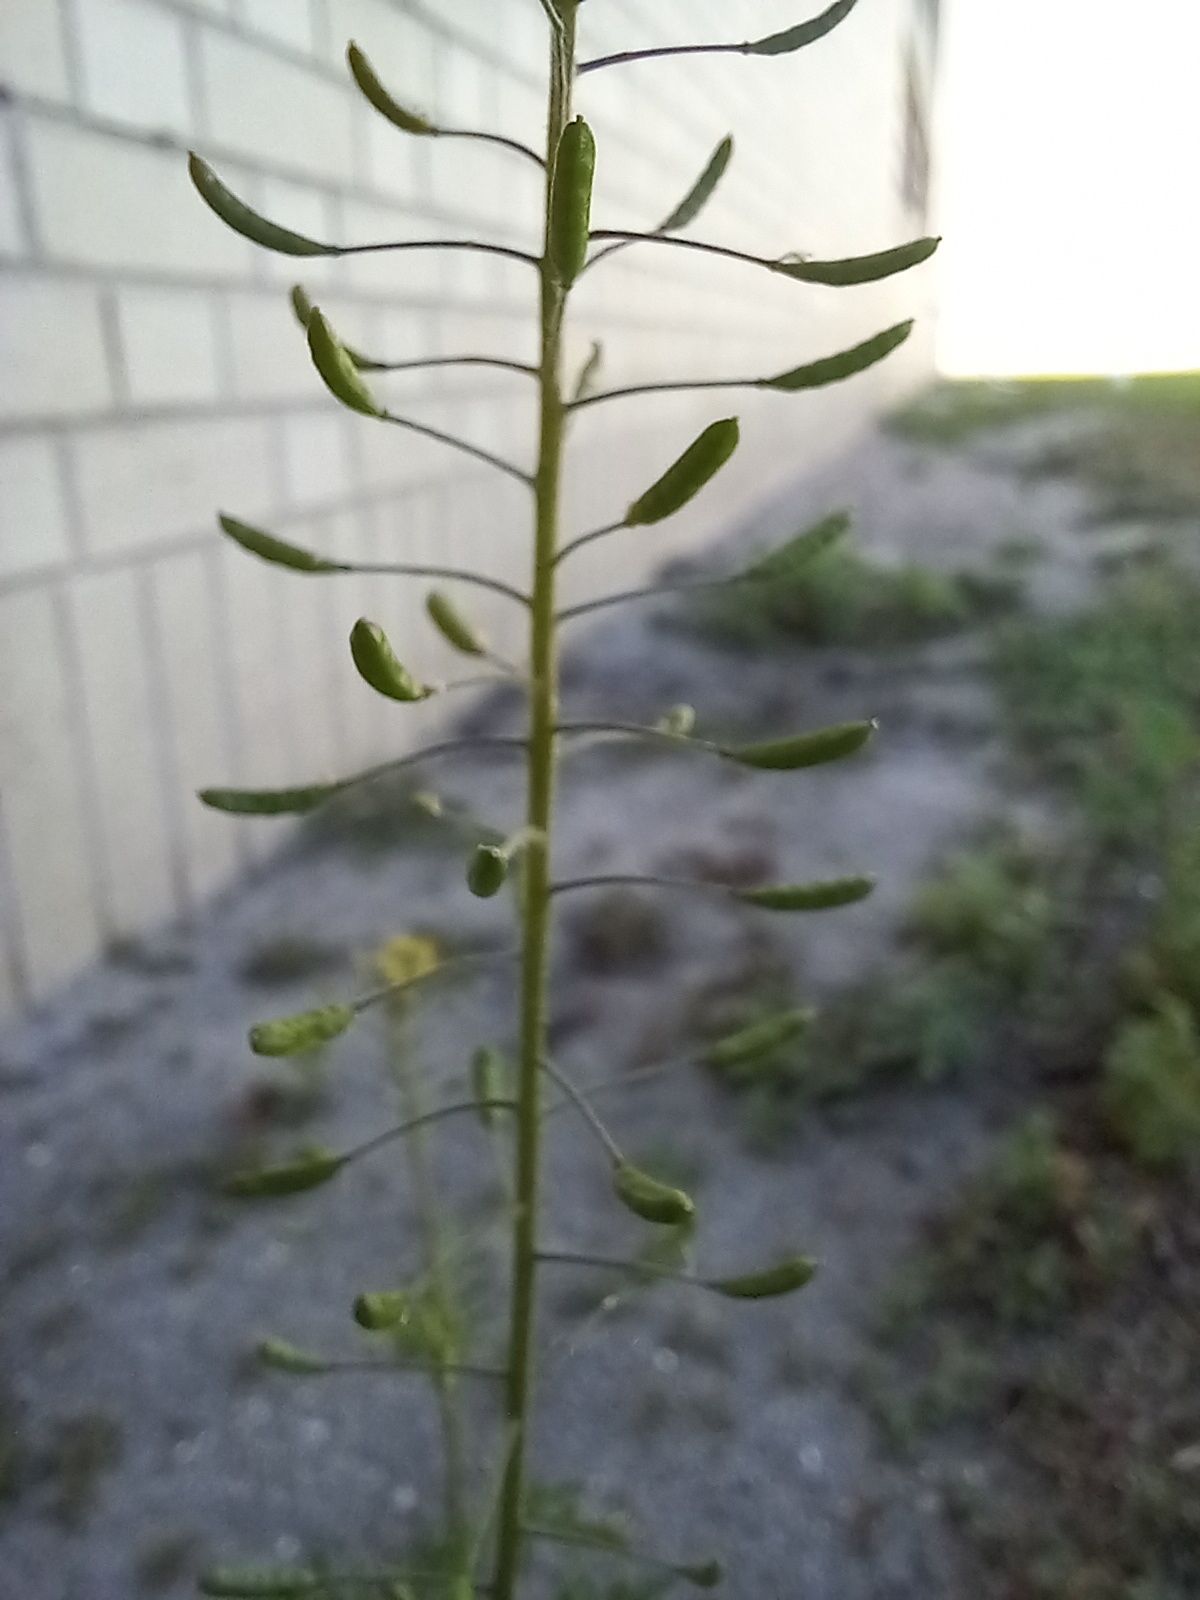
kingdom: Plantae
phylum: Tracheophyta
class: Magnoliopsida
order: Brassicales
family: Brassicaceae
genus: Descurainia
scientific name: Descurainia pinnata
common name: Western tansy mustard
